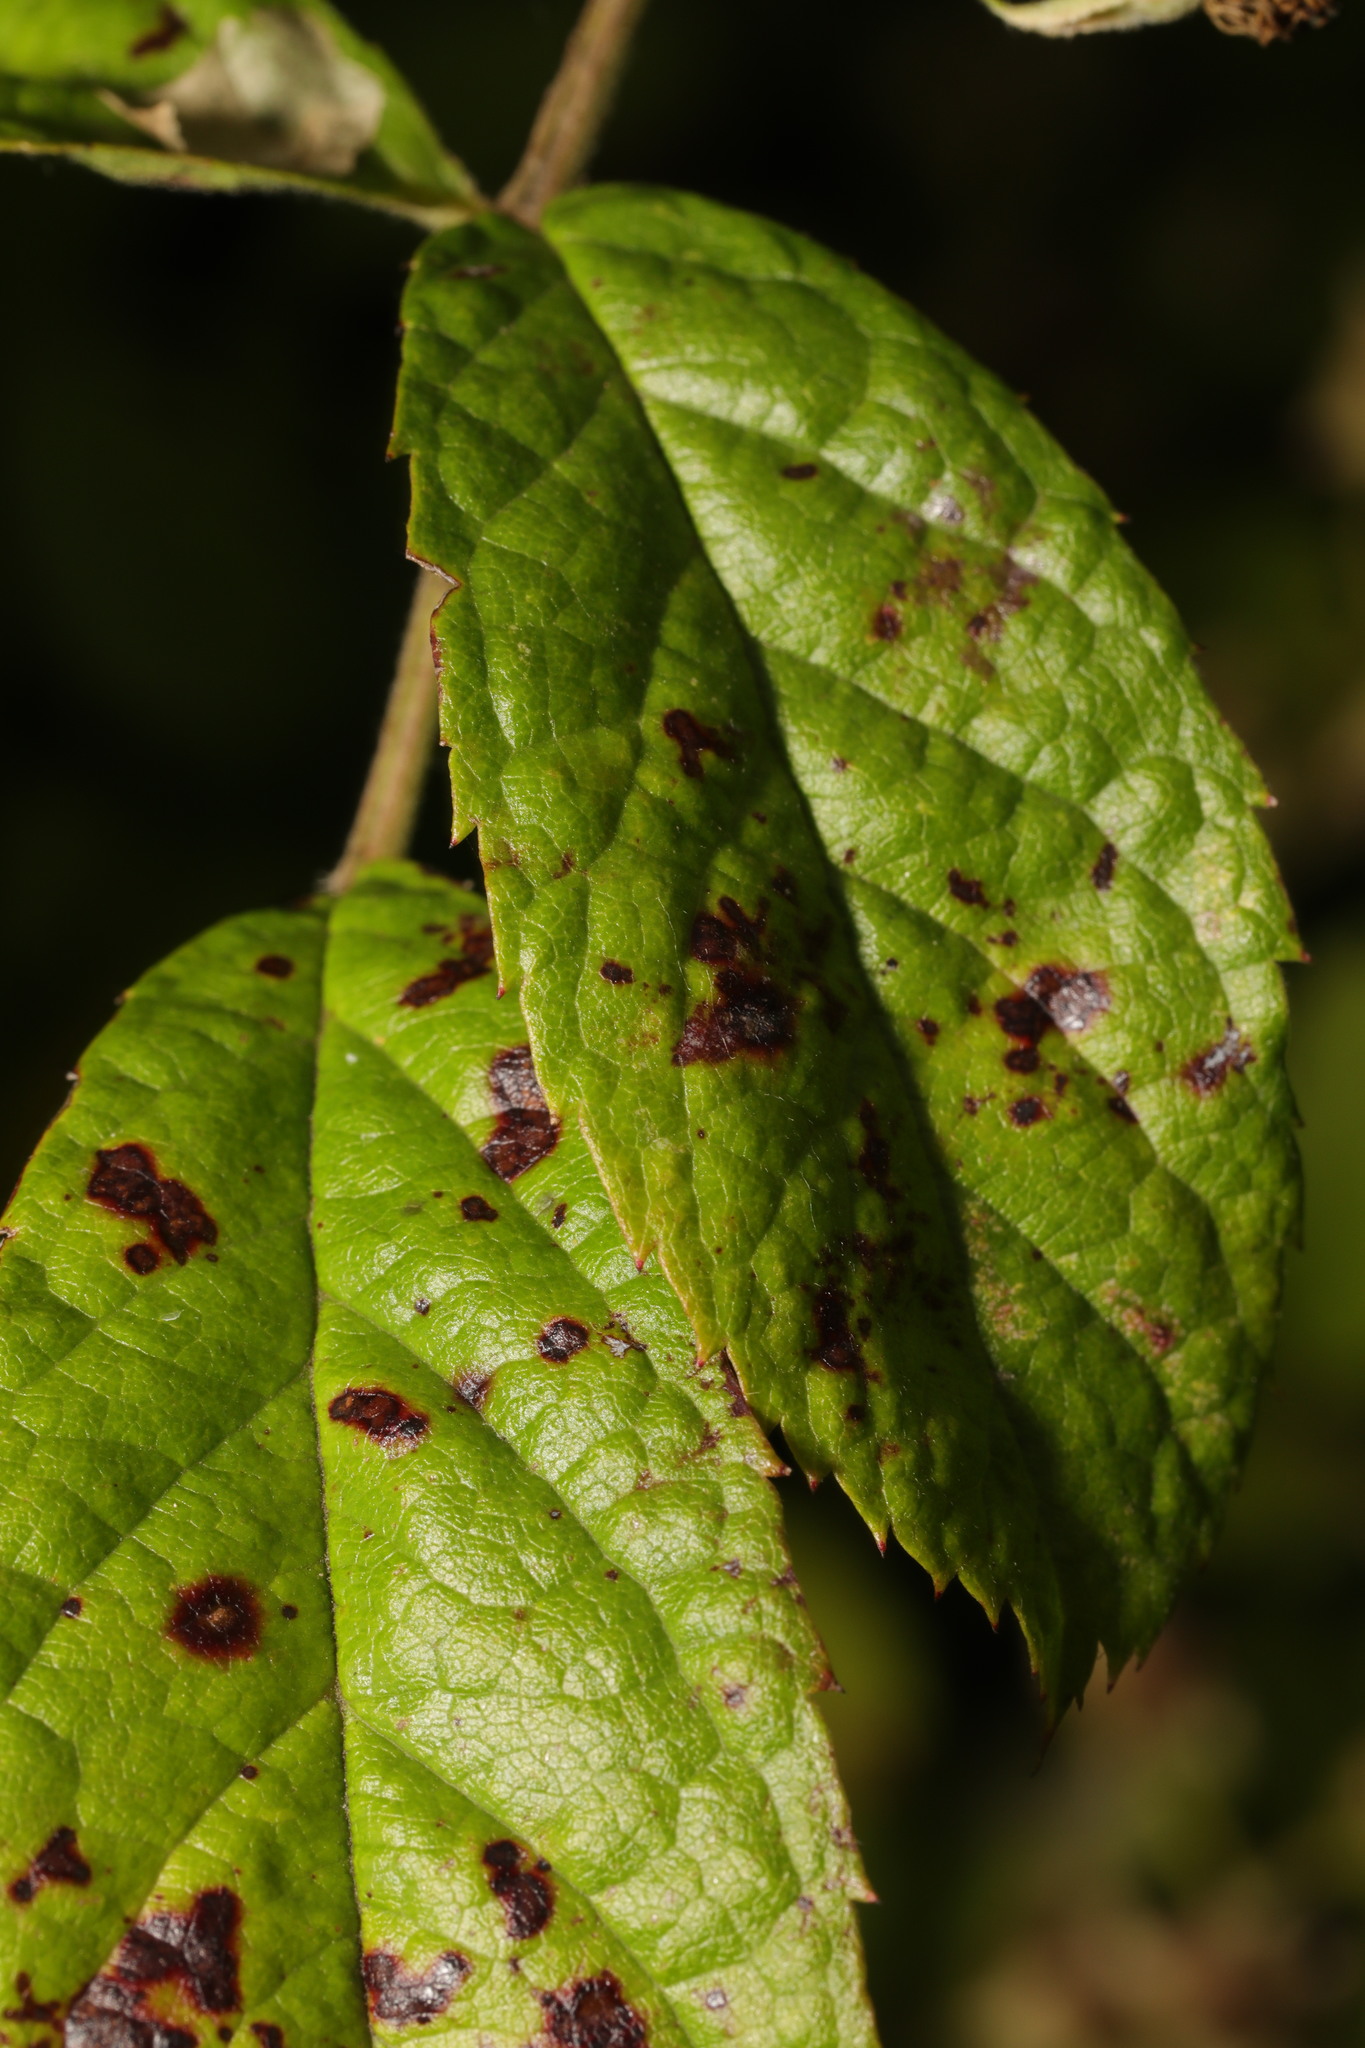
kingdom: Fungi
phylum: Ascomycota
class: Leotiomycetes
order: Helotiales
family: Drepanopezizaceae
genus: Diplocarpon
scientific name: Diplocarpon rosae
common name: Rose black-spot
